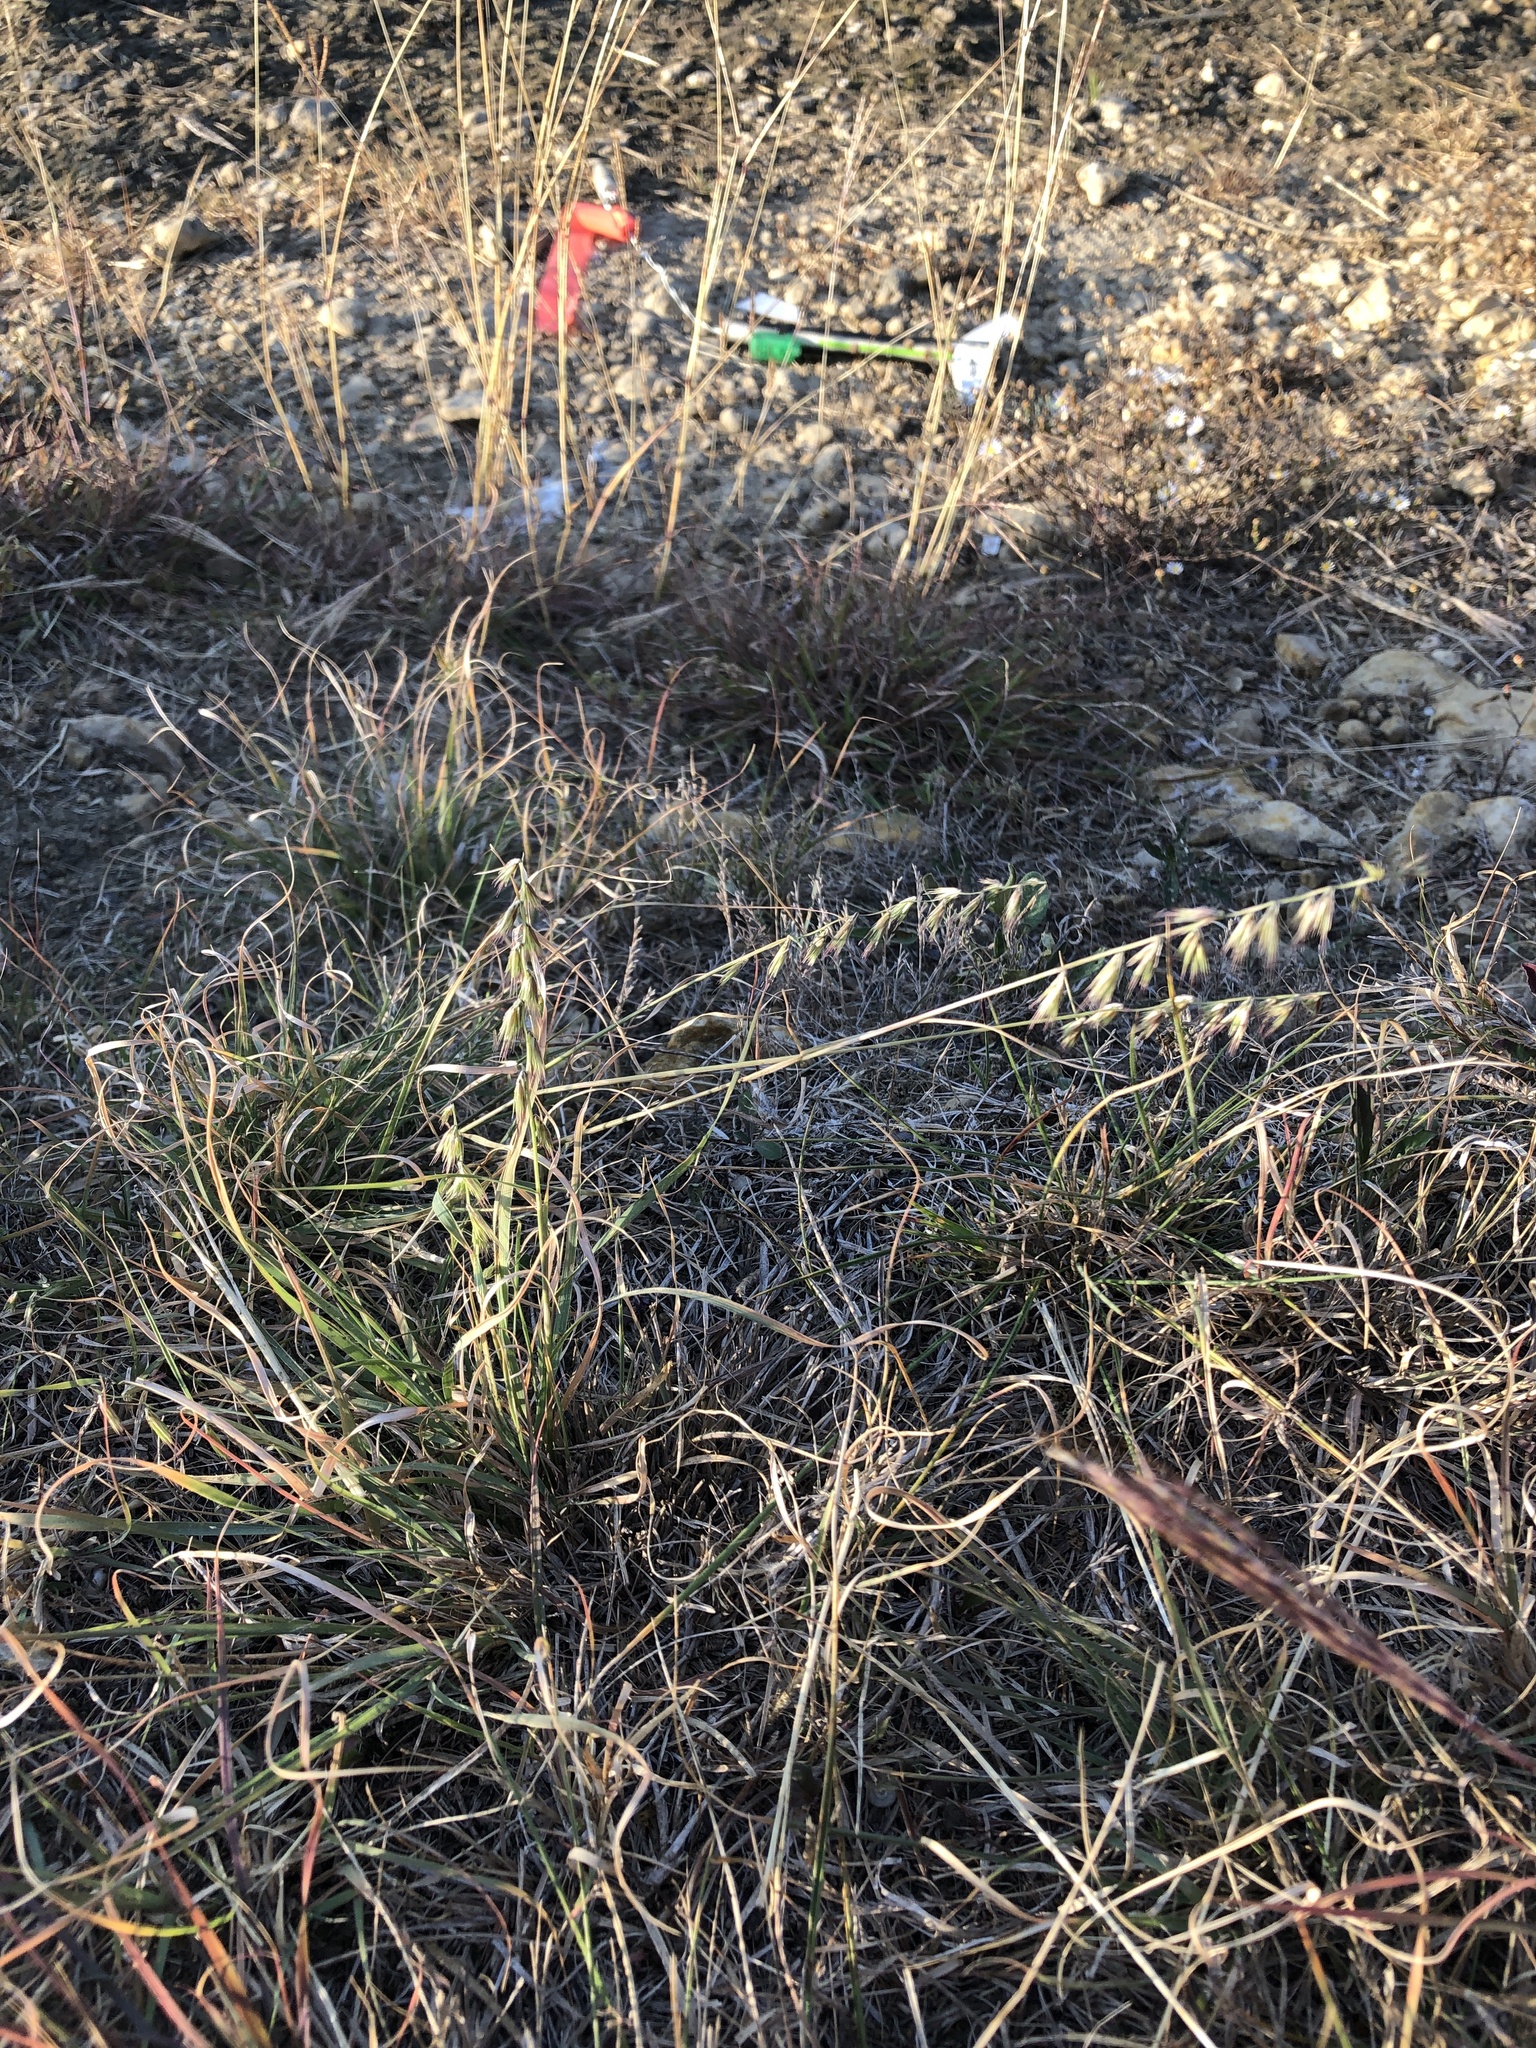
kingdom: Plantae
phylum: Tracheophyta
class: Liliopsida
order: Poales
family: Poaceae
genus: Bouteloua
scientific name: Bouteloua rigidiseta
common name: Texas grama
